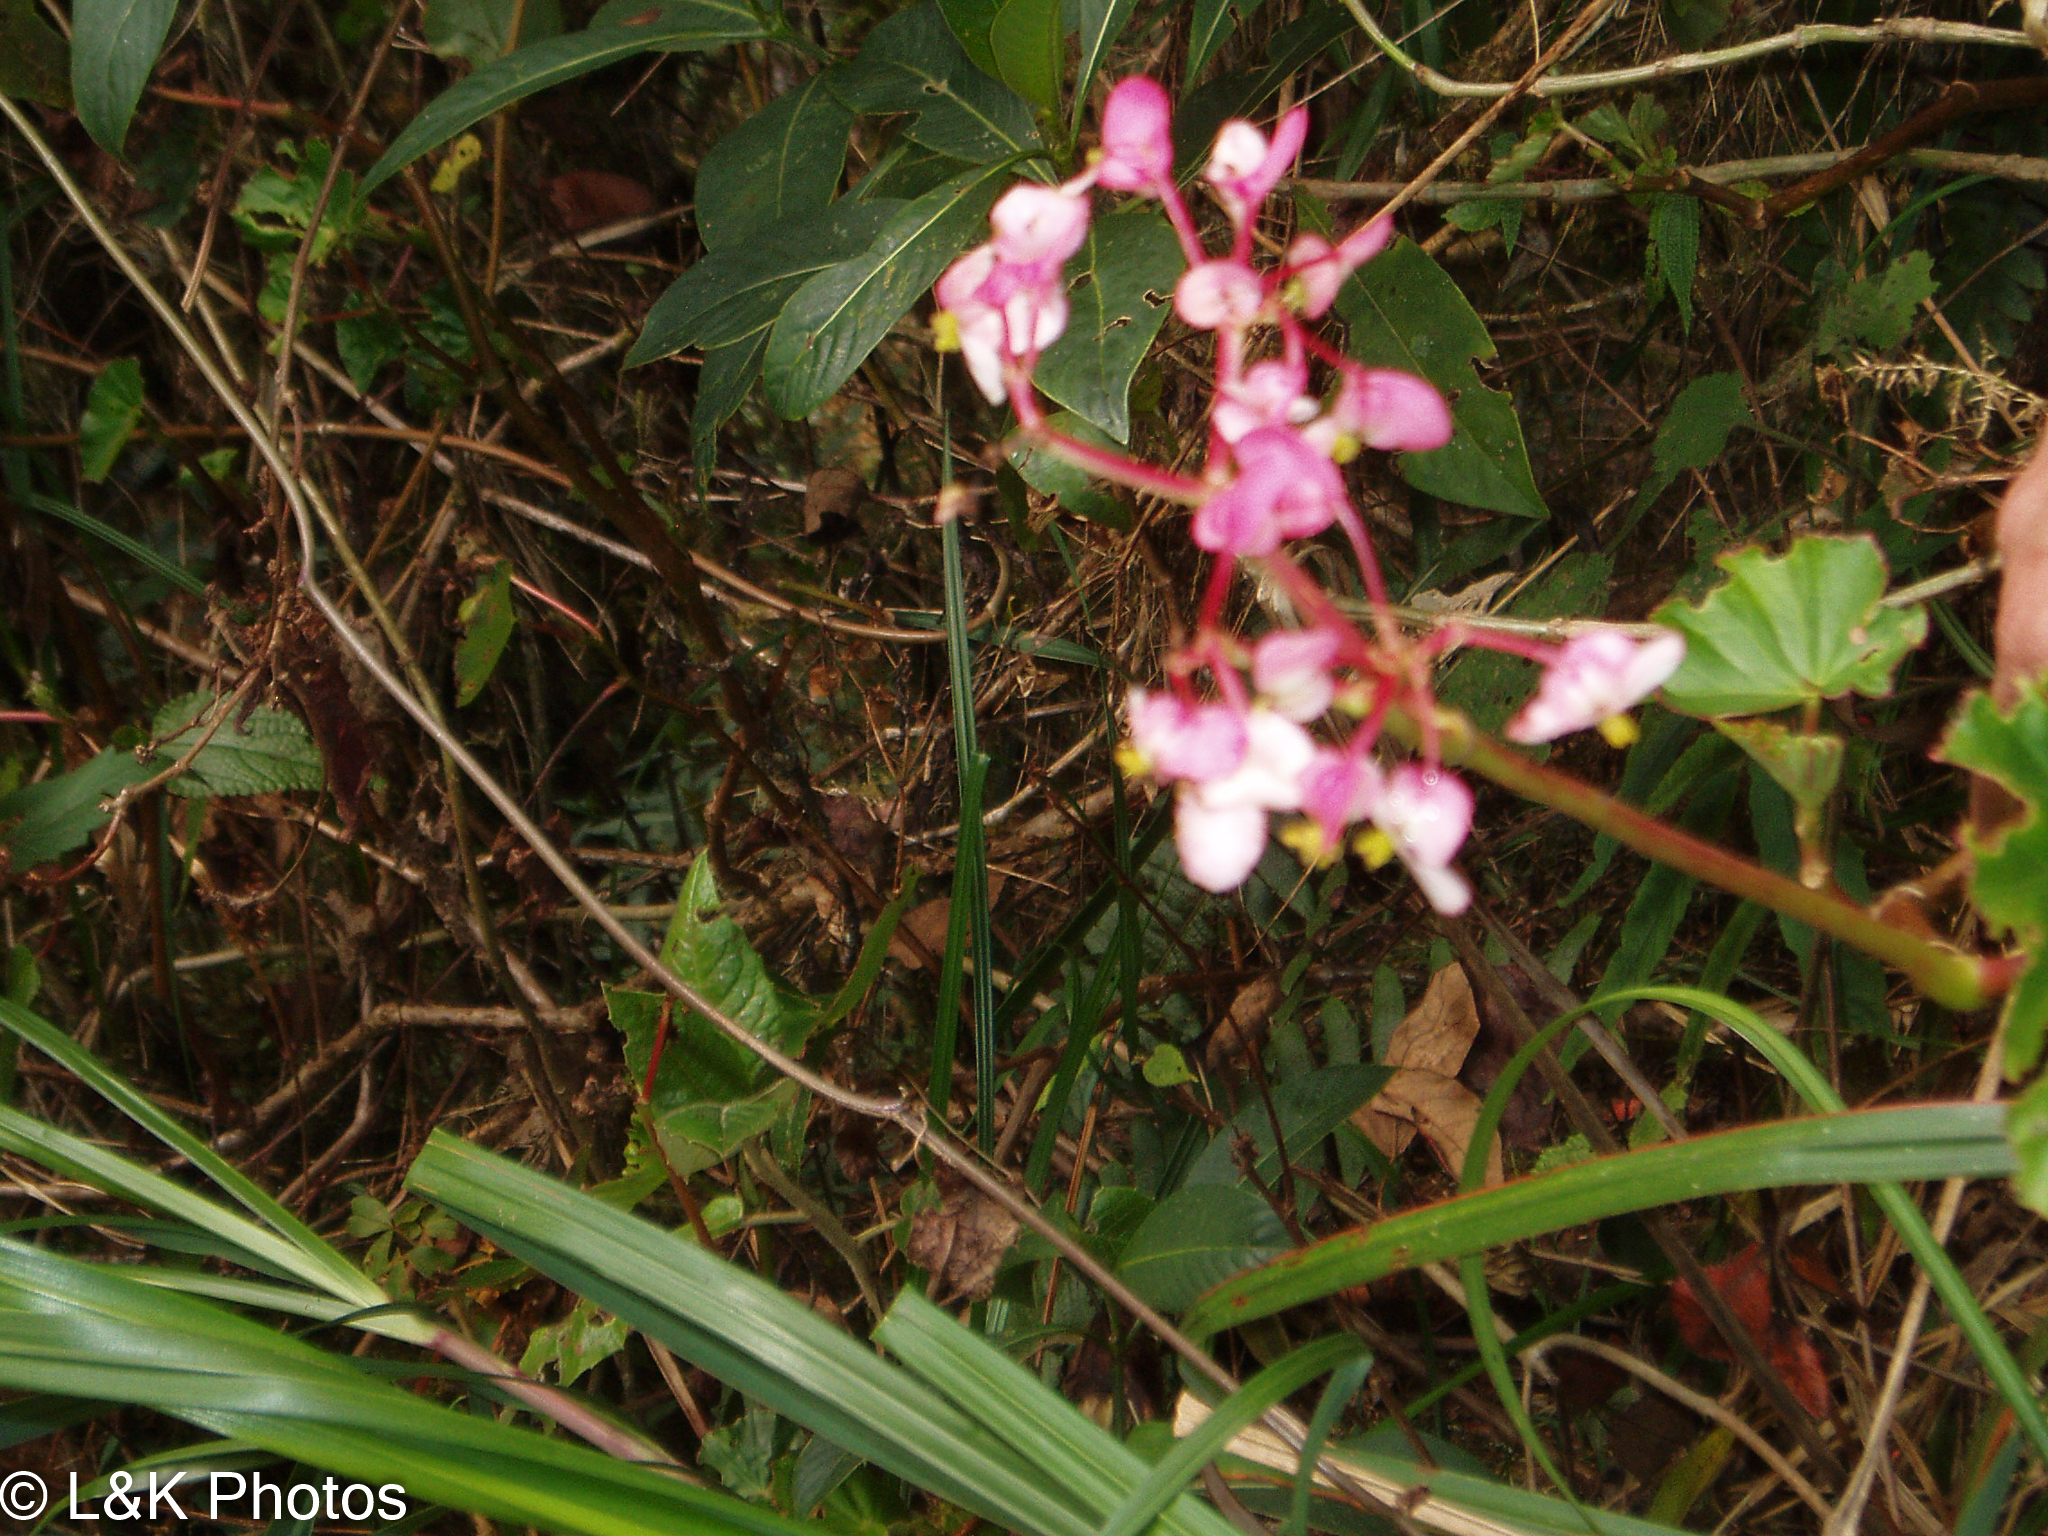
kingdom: Plantae
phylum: Tracheophyta
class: Magnoliopsida
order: Cucurbitales
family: Begoniaceae
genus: Begonia
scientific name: Begonia bracteosa
